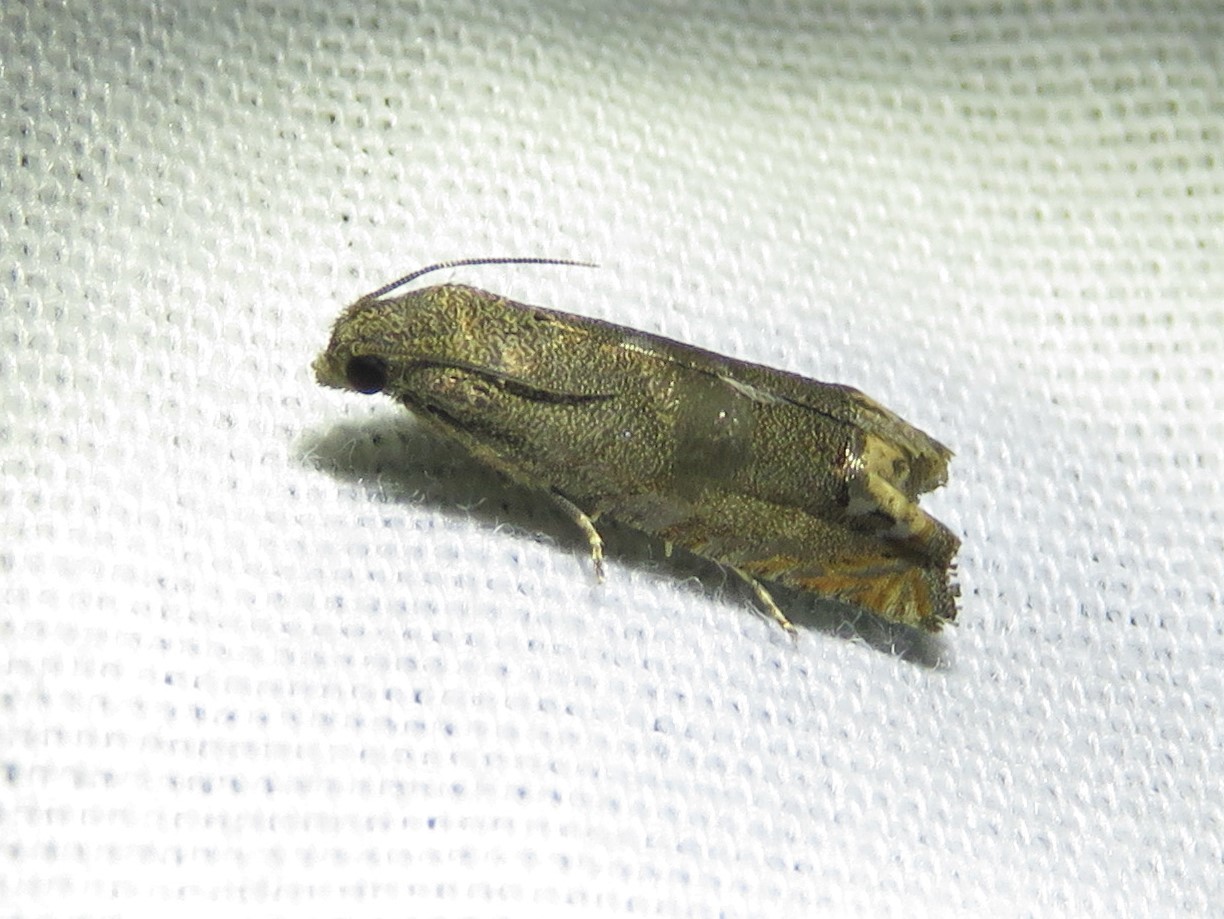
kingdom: Animalia
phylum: Arthropoda
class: Insecta
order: Lepidoptera
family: Tortricidae
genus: Epiblema
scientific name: Epiblema strenuana
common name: Ragweed borer moth
